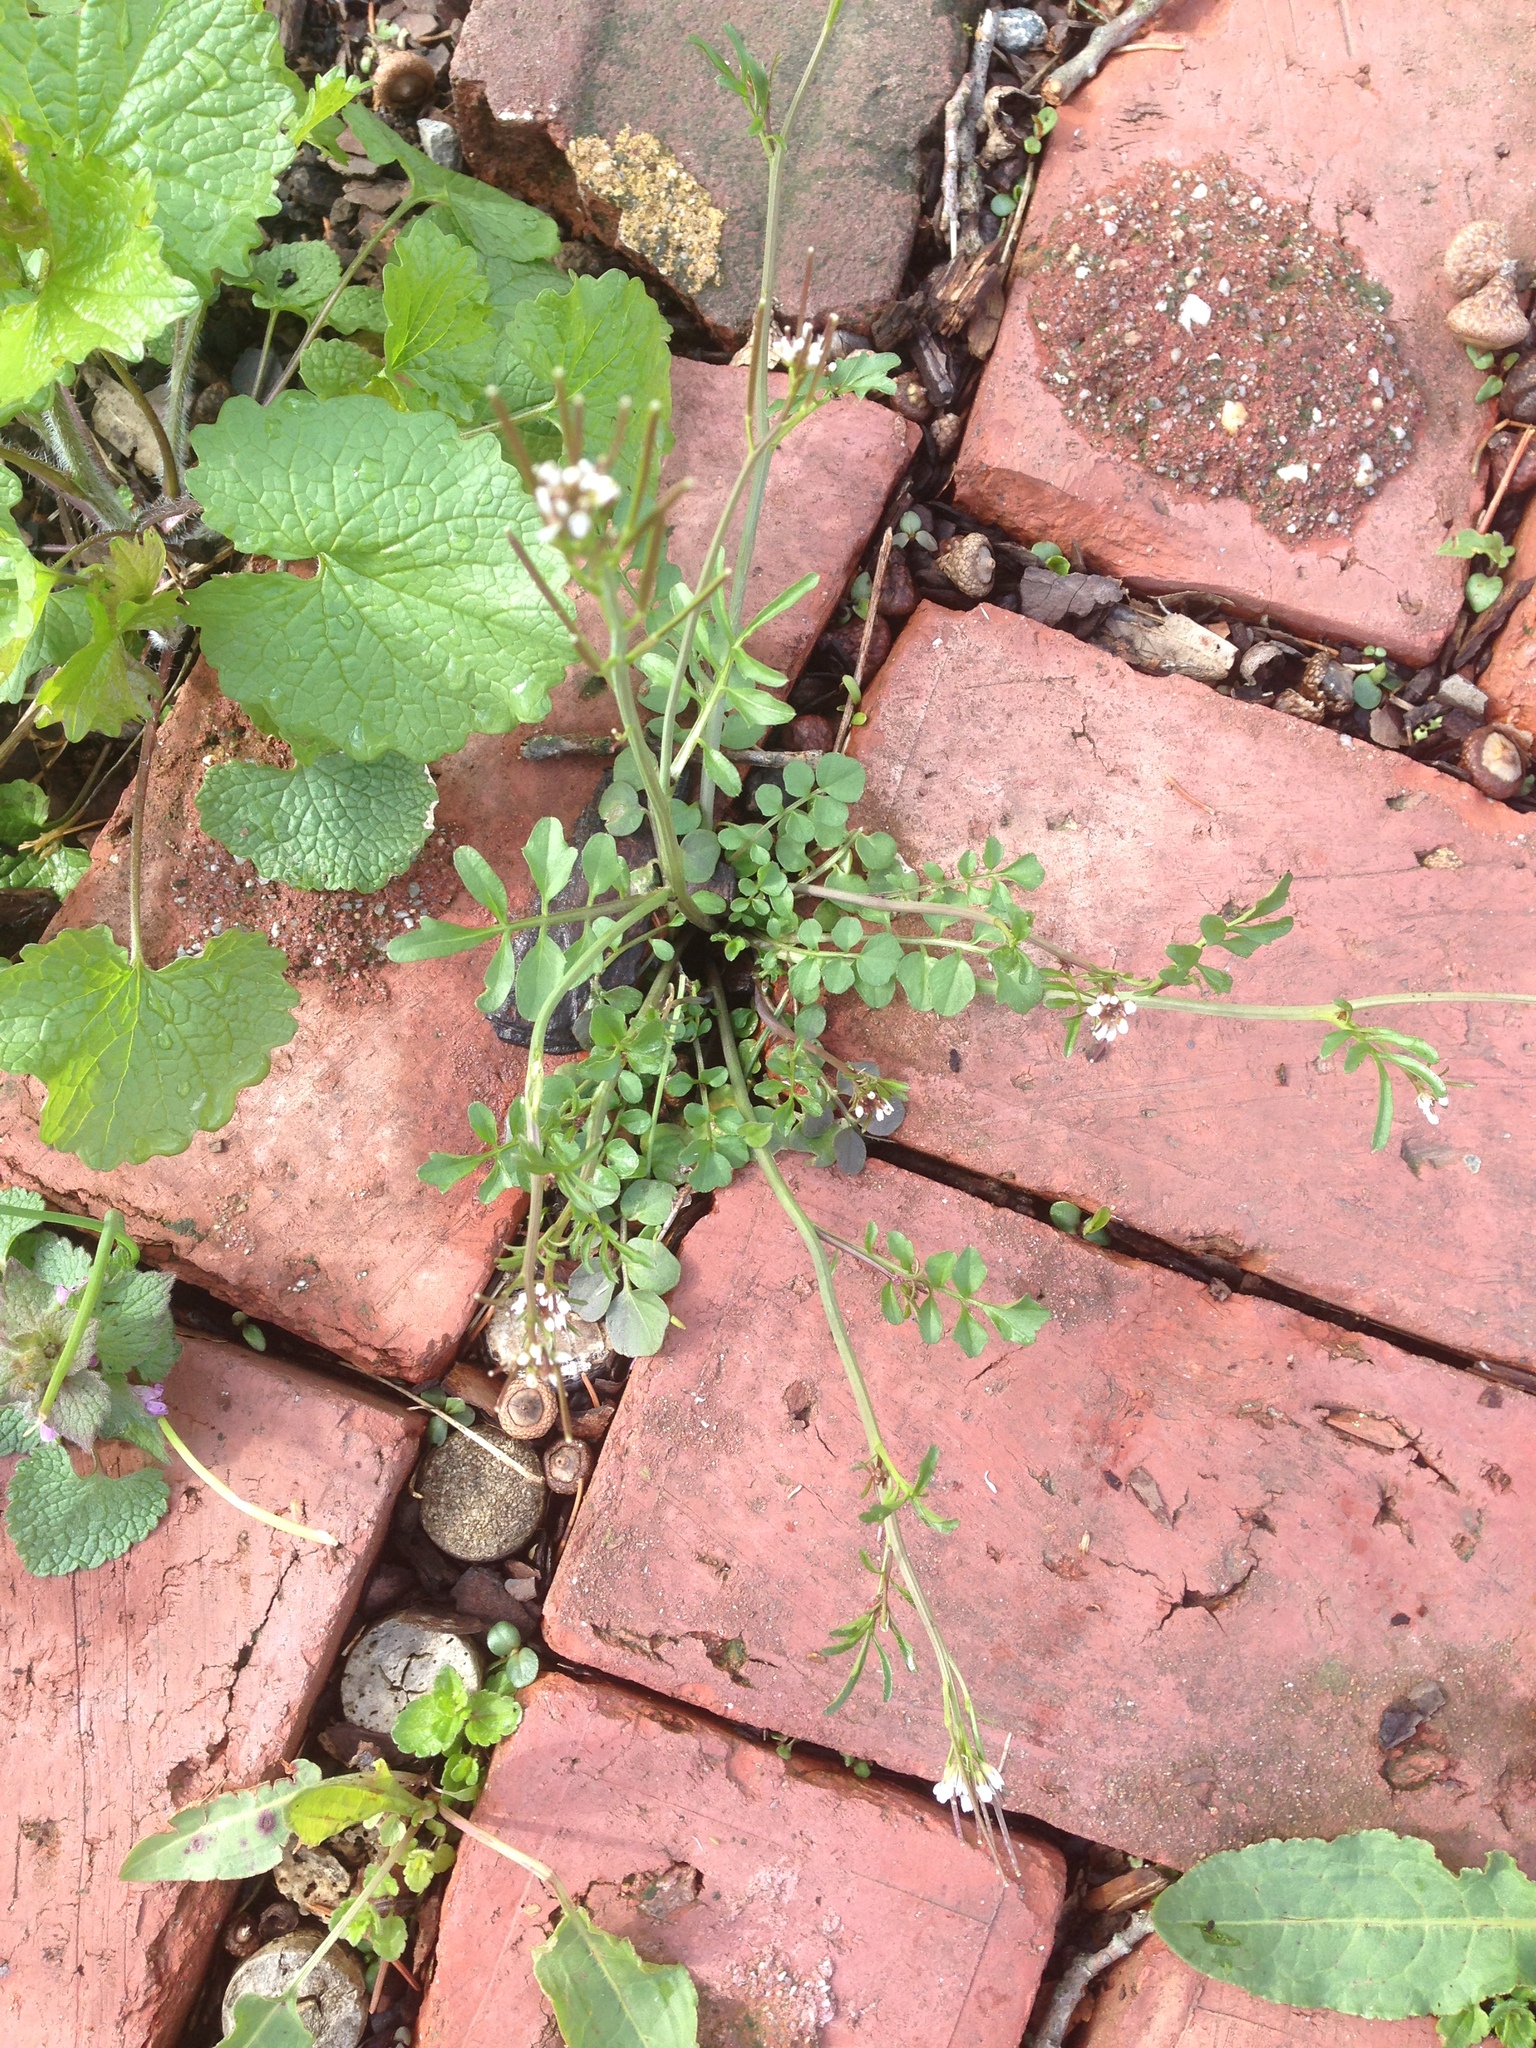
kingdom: Plantae
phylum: Tracheophyta
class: Magnoliopsida
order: Brassicales
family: Brassicaceae
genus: Cardamine
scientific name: Cardamine hirsuta
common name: Hairy bittercress
